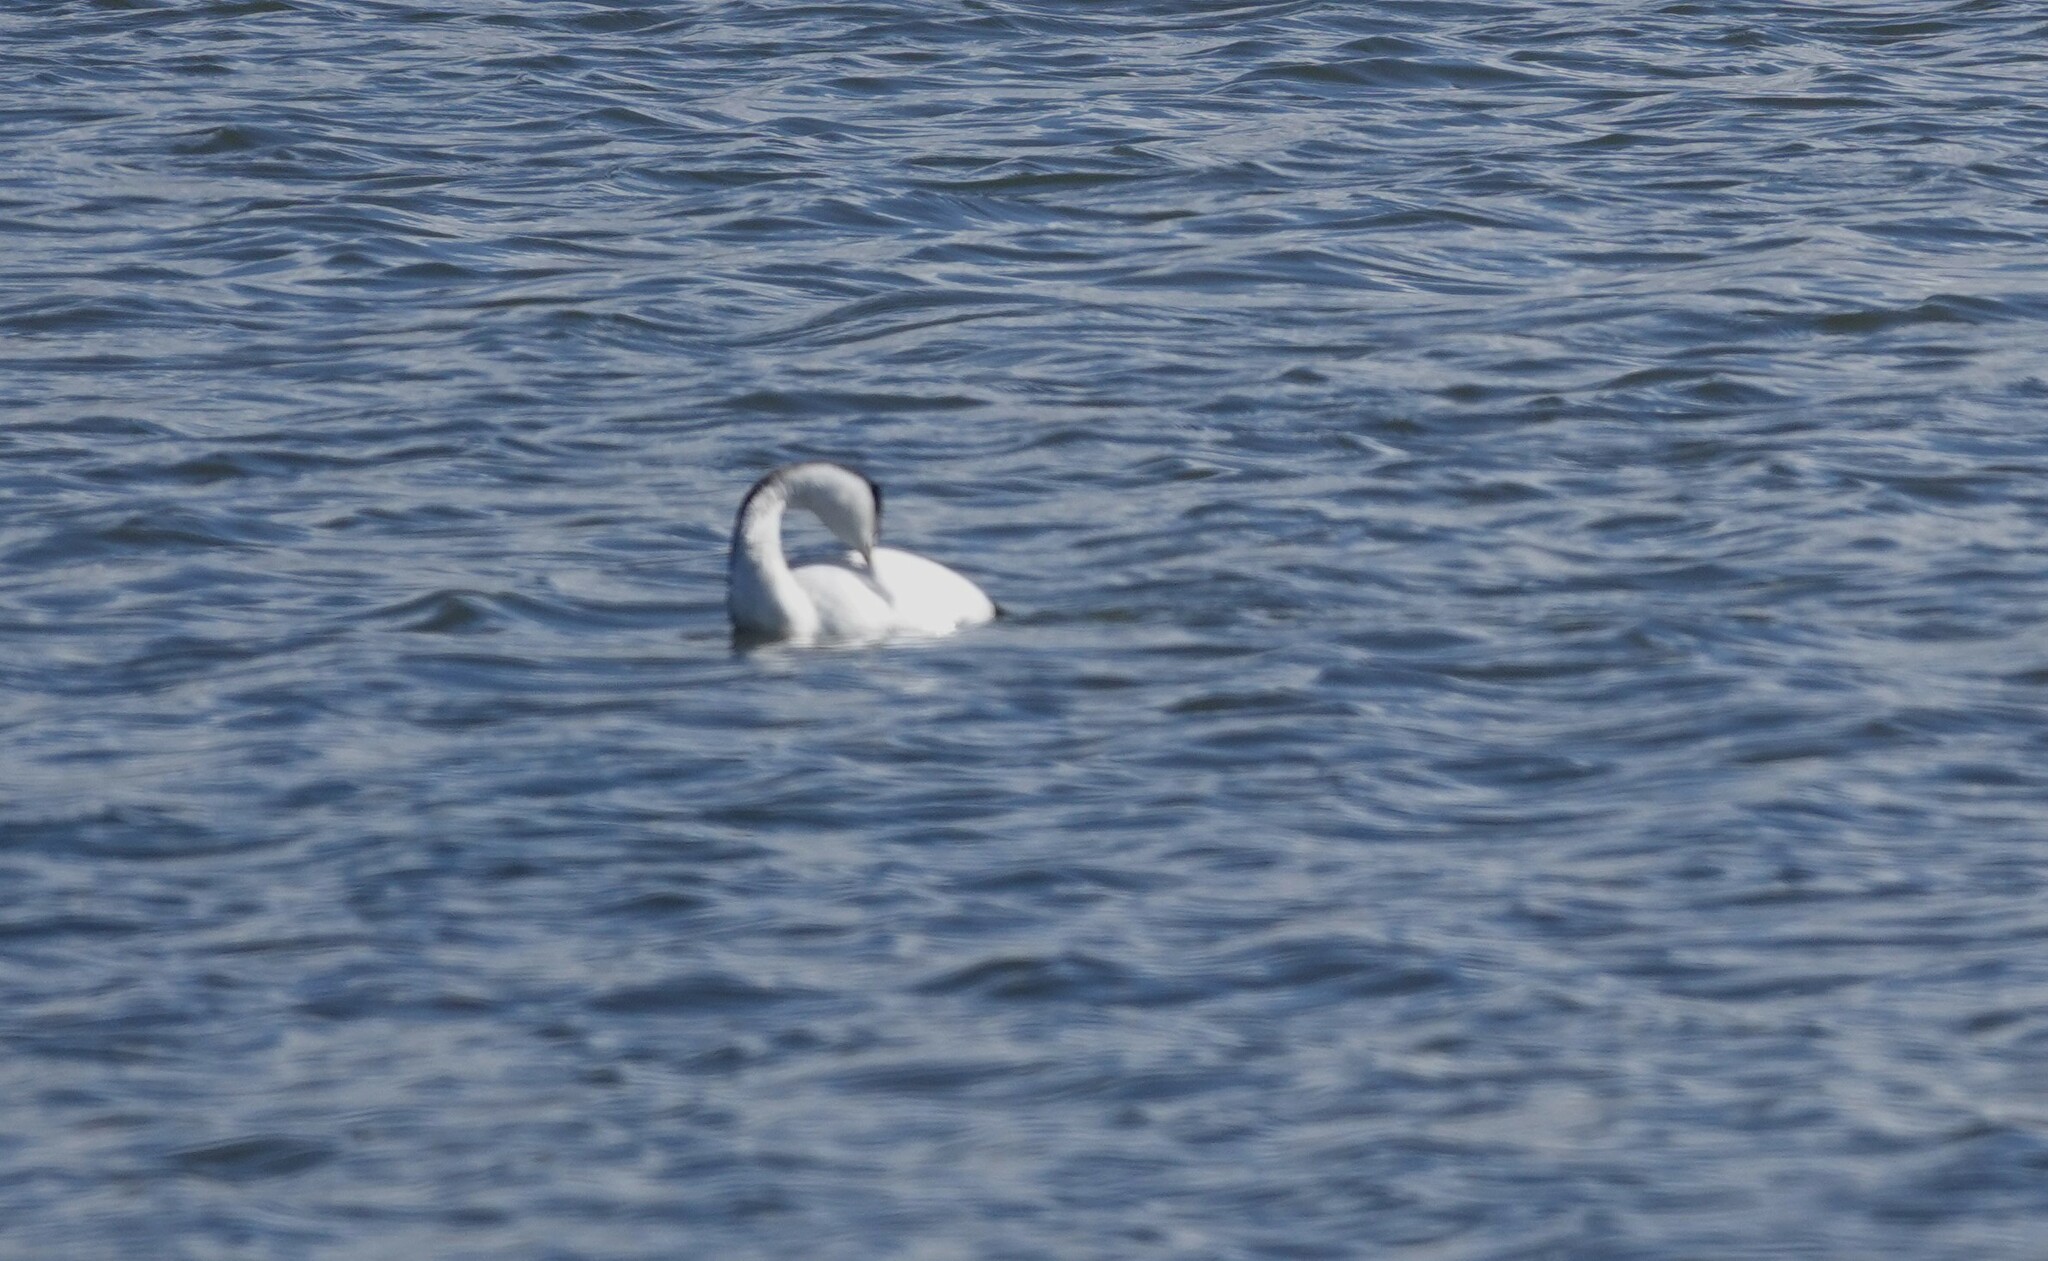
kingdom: Animalia
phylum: Chordata
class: Aves
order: Podicipediformes
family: Podicipedidae
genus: Aechmophorus
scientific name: Aechmophorus occidentalis
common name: Western grebe
